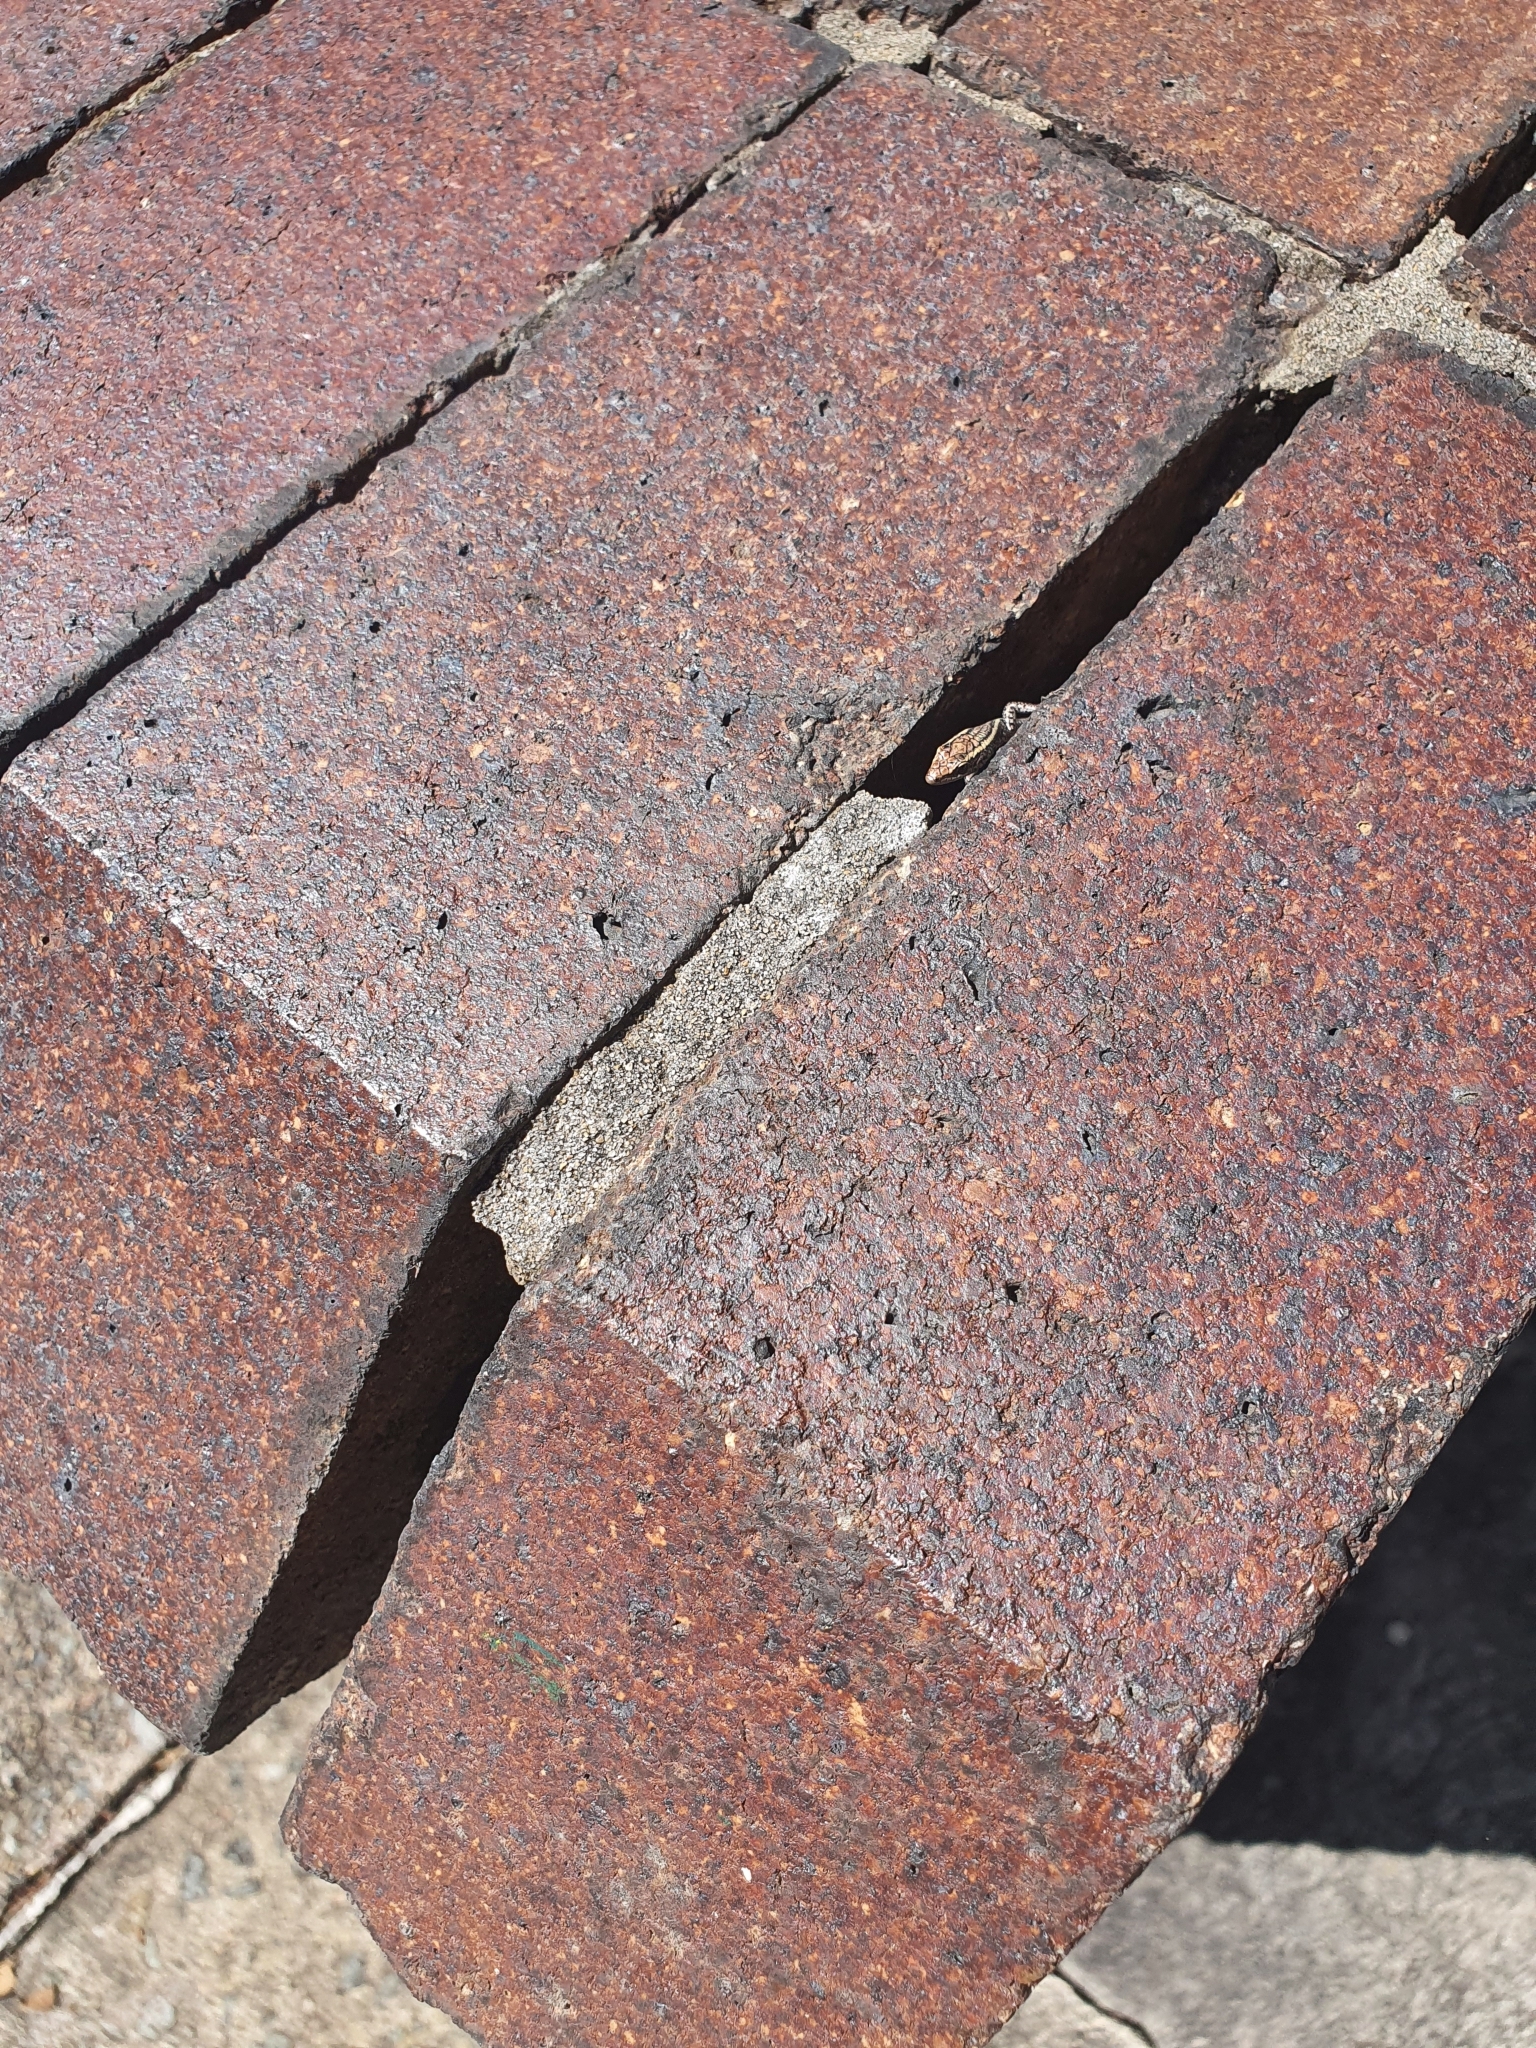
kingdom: Animalia
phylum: Chordata
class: Squamata
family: Scincidae
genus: Cryptoblepharus
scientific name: Cryptoblepharus pulcher
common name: Elegant snake-eyed skink
